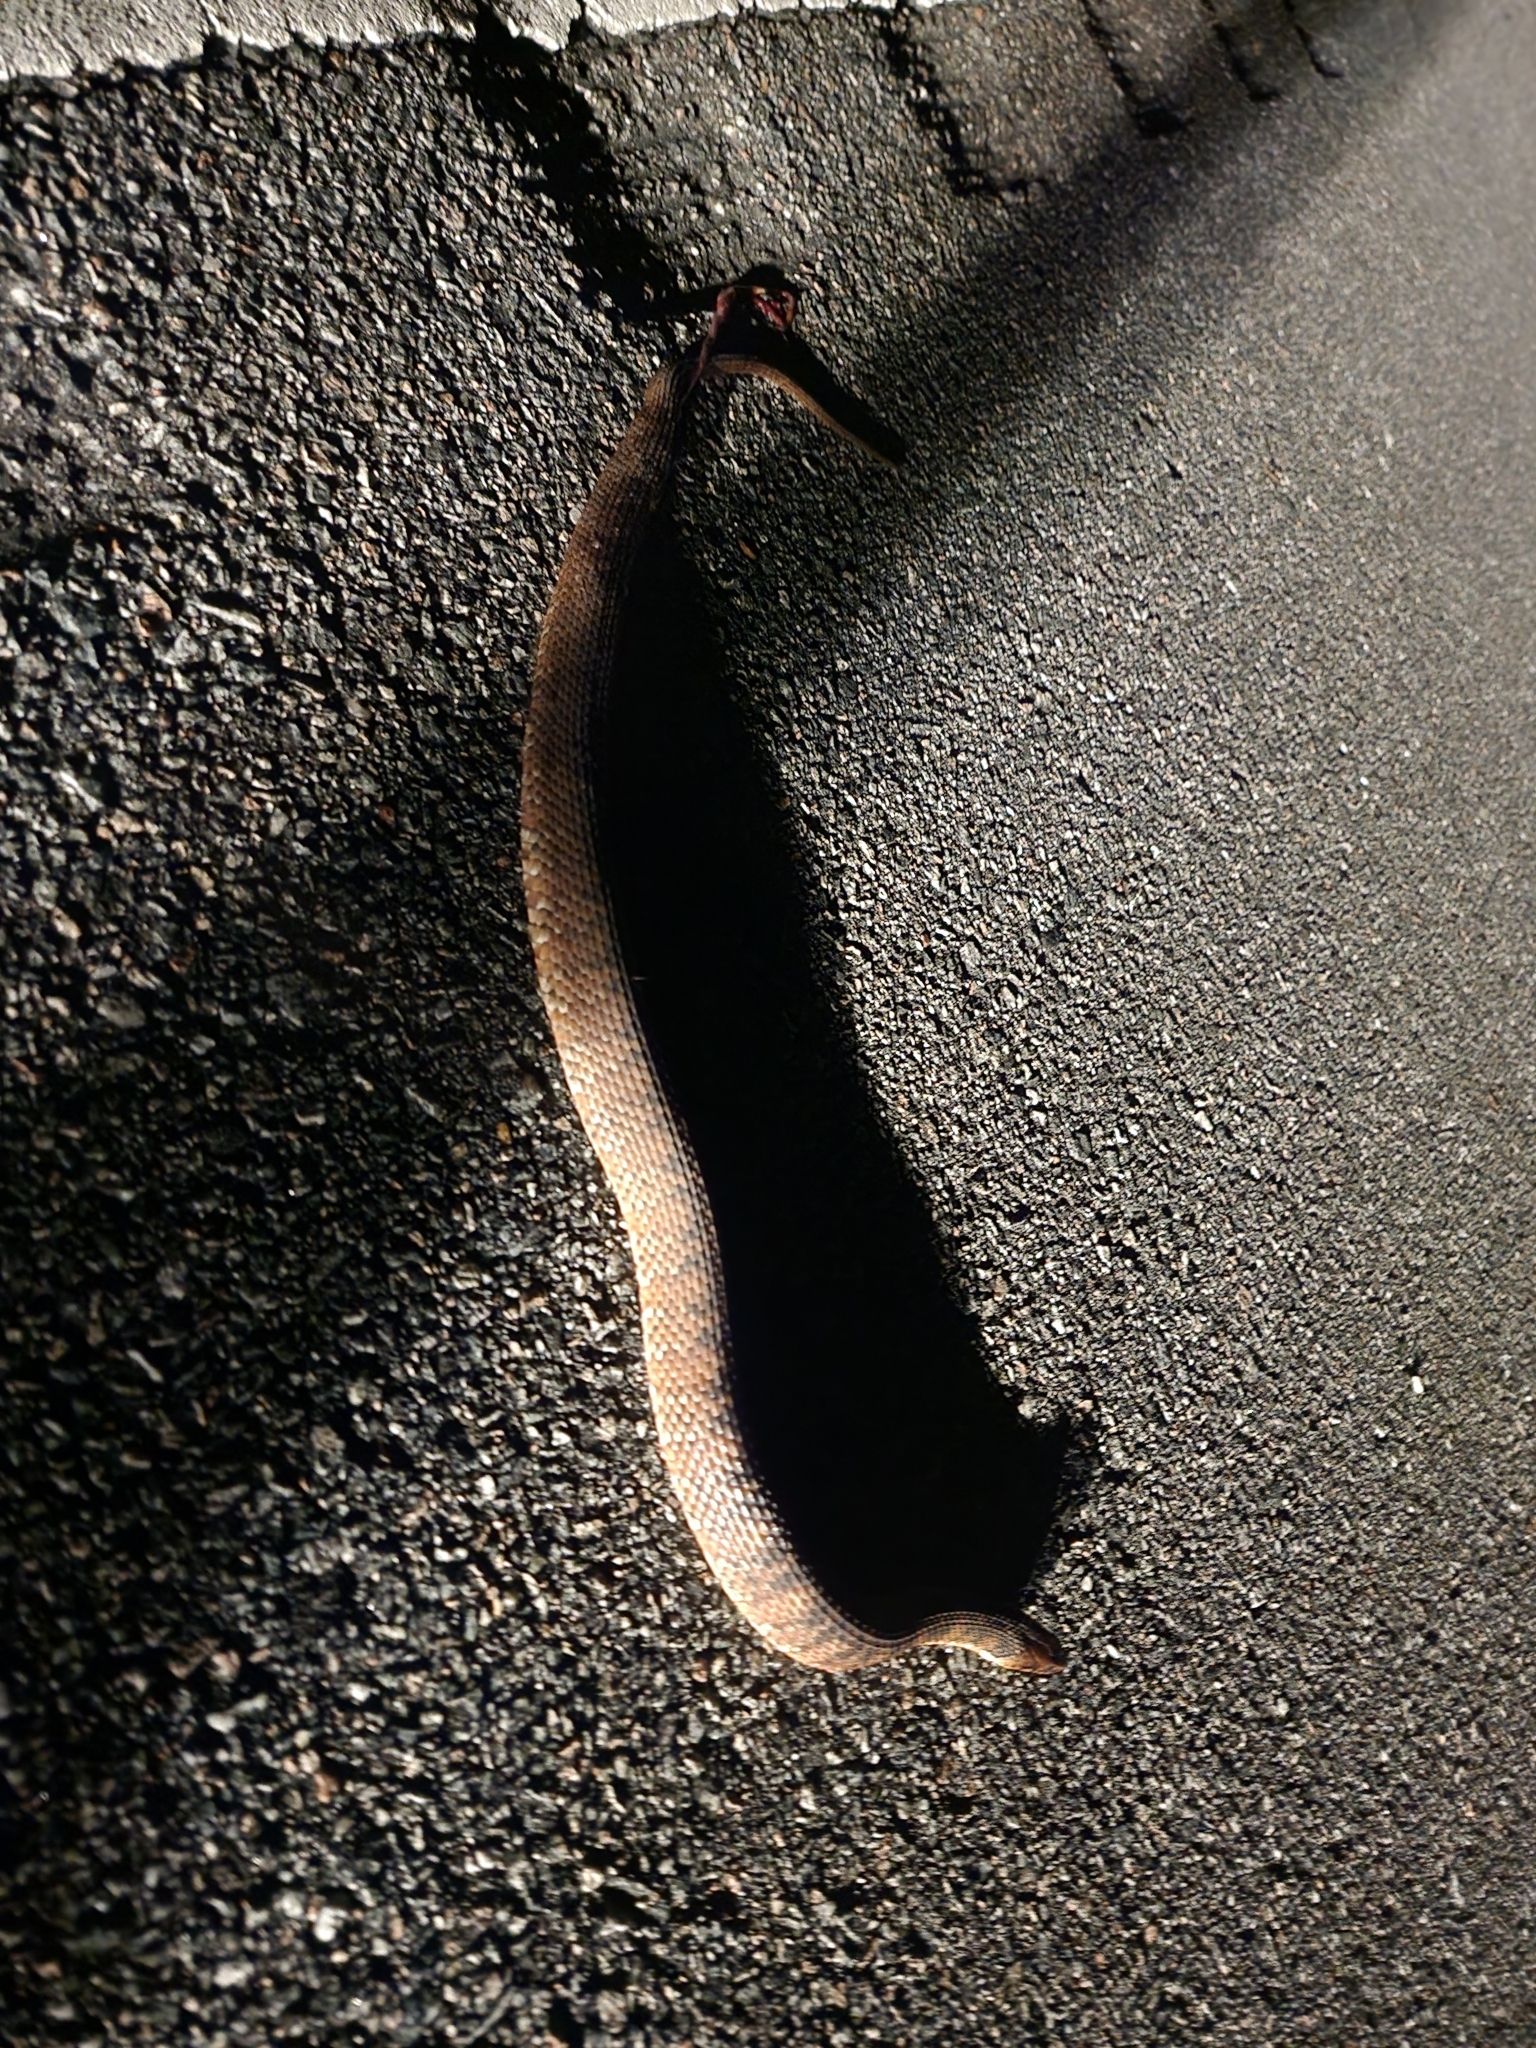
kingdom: Animalia
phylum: Chordata
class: Squamata
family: Colubridae
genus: Nerodia
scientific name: Nerodia fasciata
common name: Southern water snake
